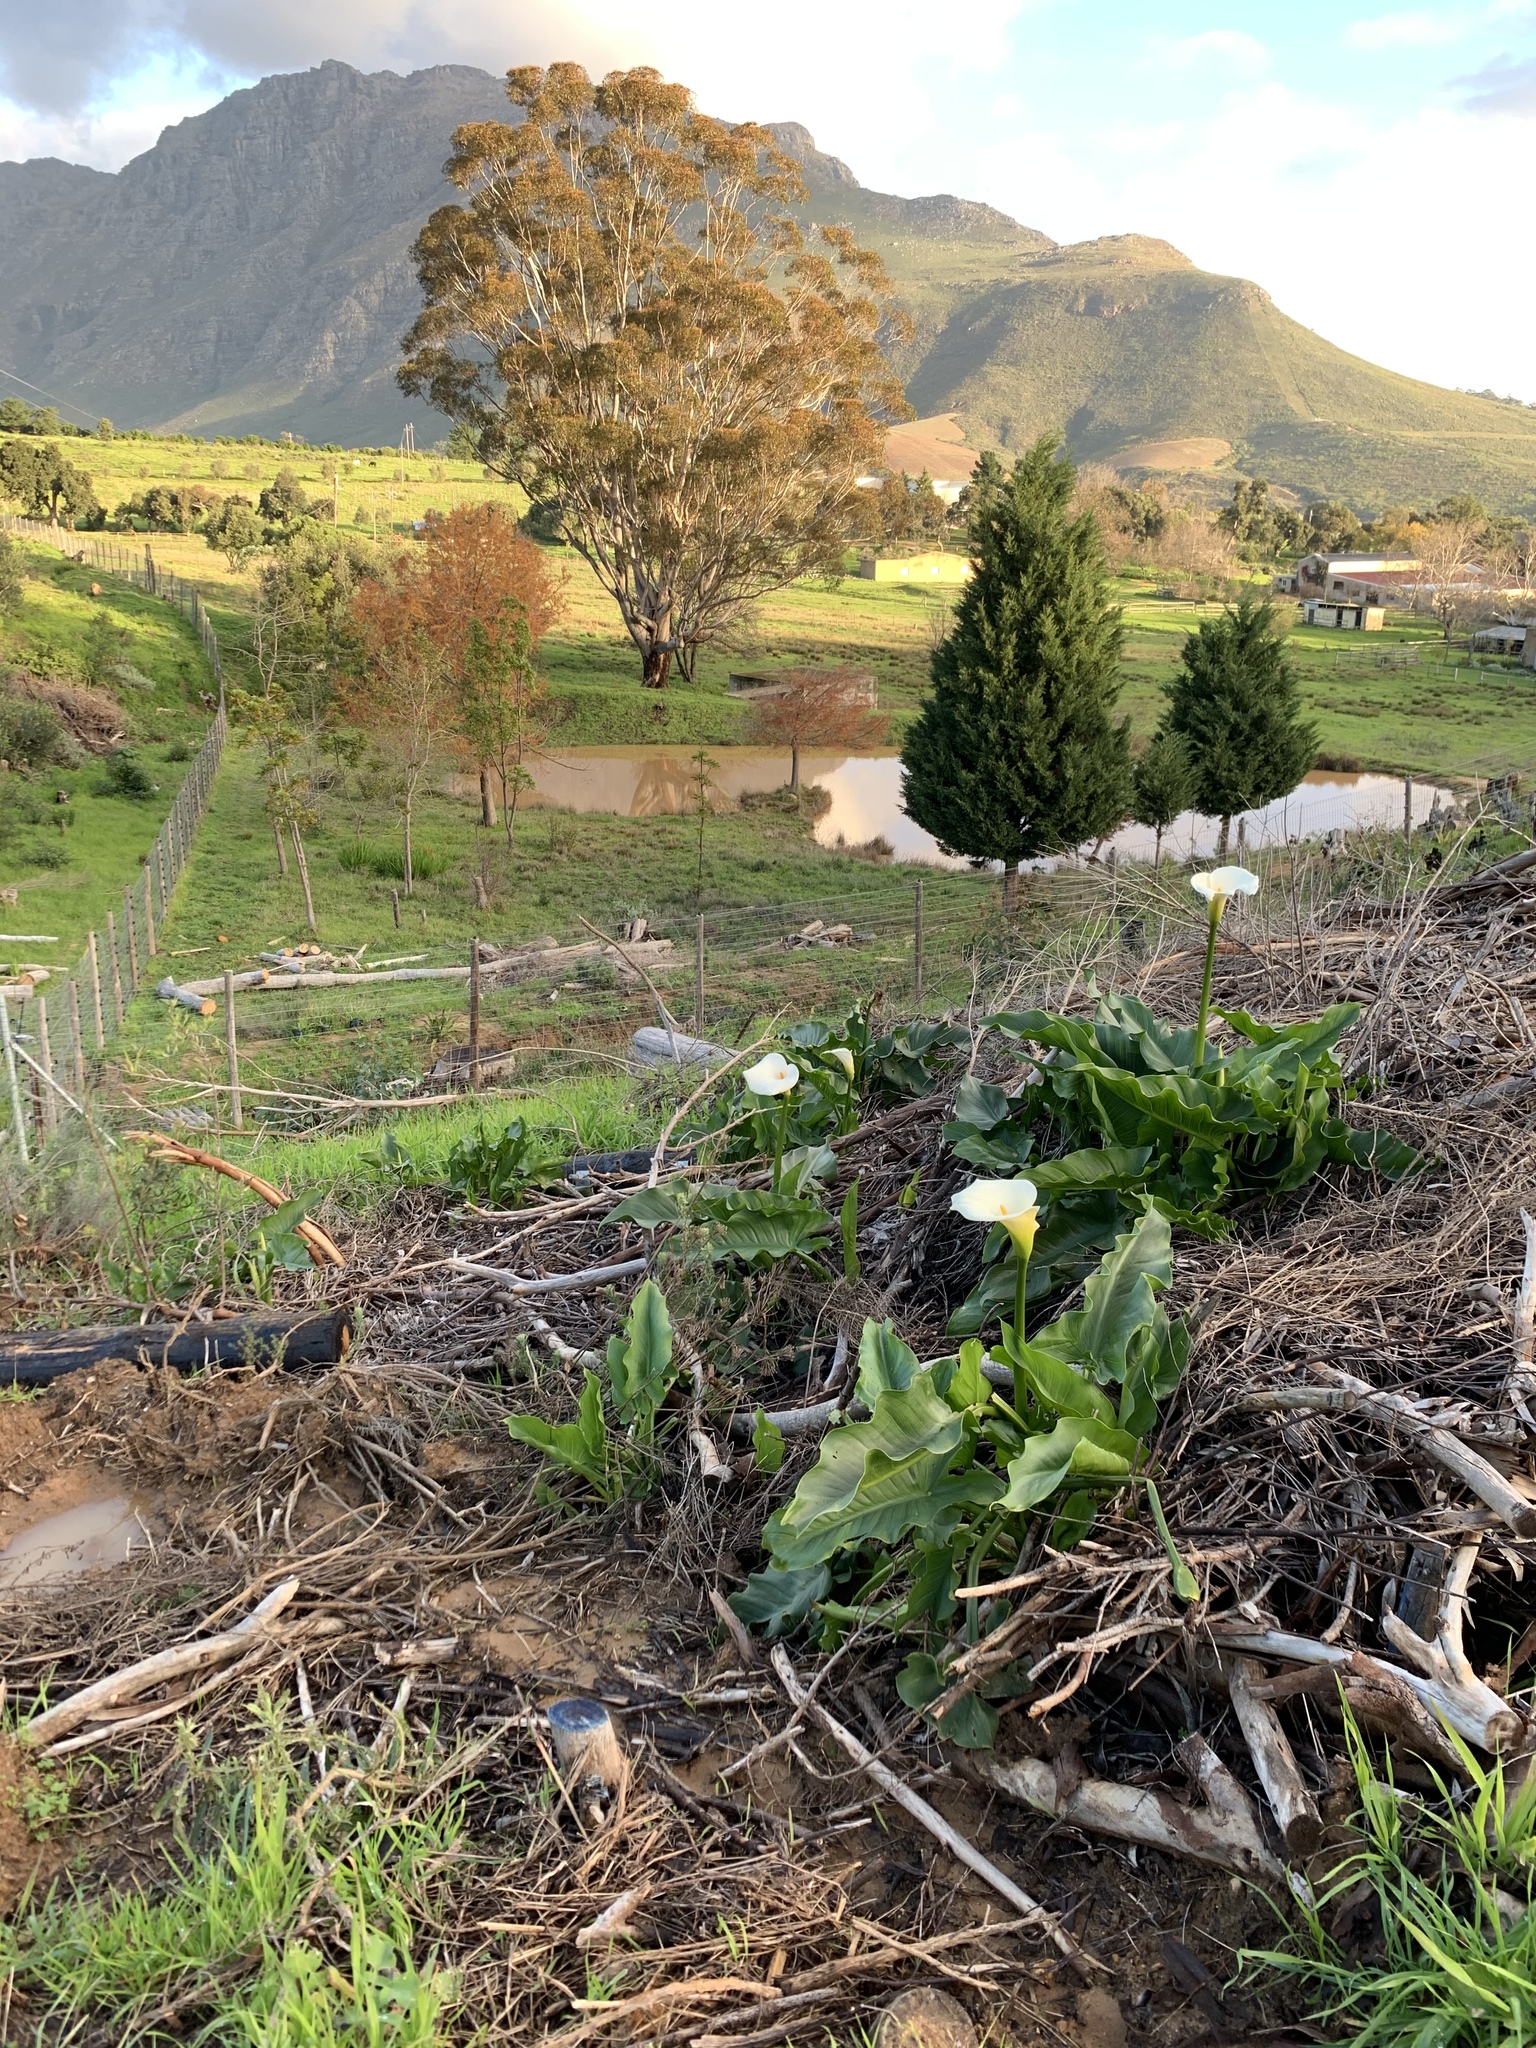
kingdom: Plantae
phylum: Tracheophyta
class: Liliopsida
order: Alismatales
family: Araceae
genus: Zantedeschia
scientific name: Zantedeschia aethiopica
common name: Altar-lily
